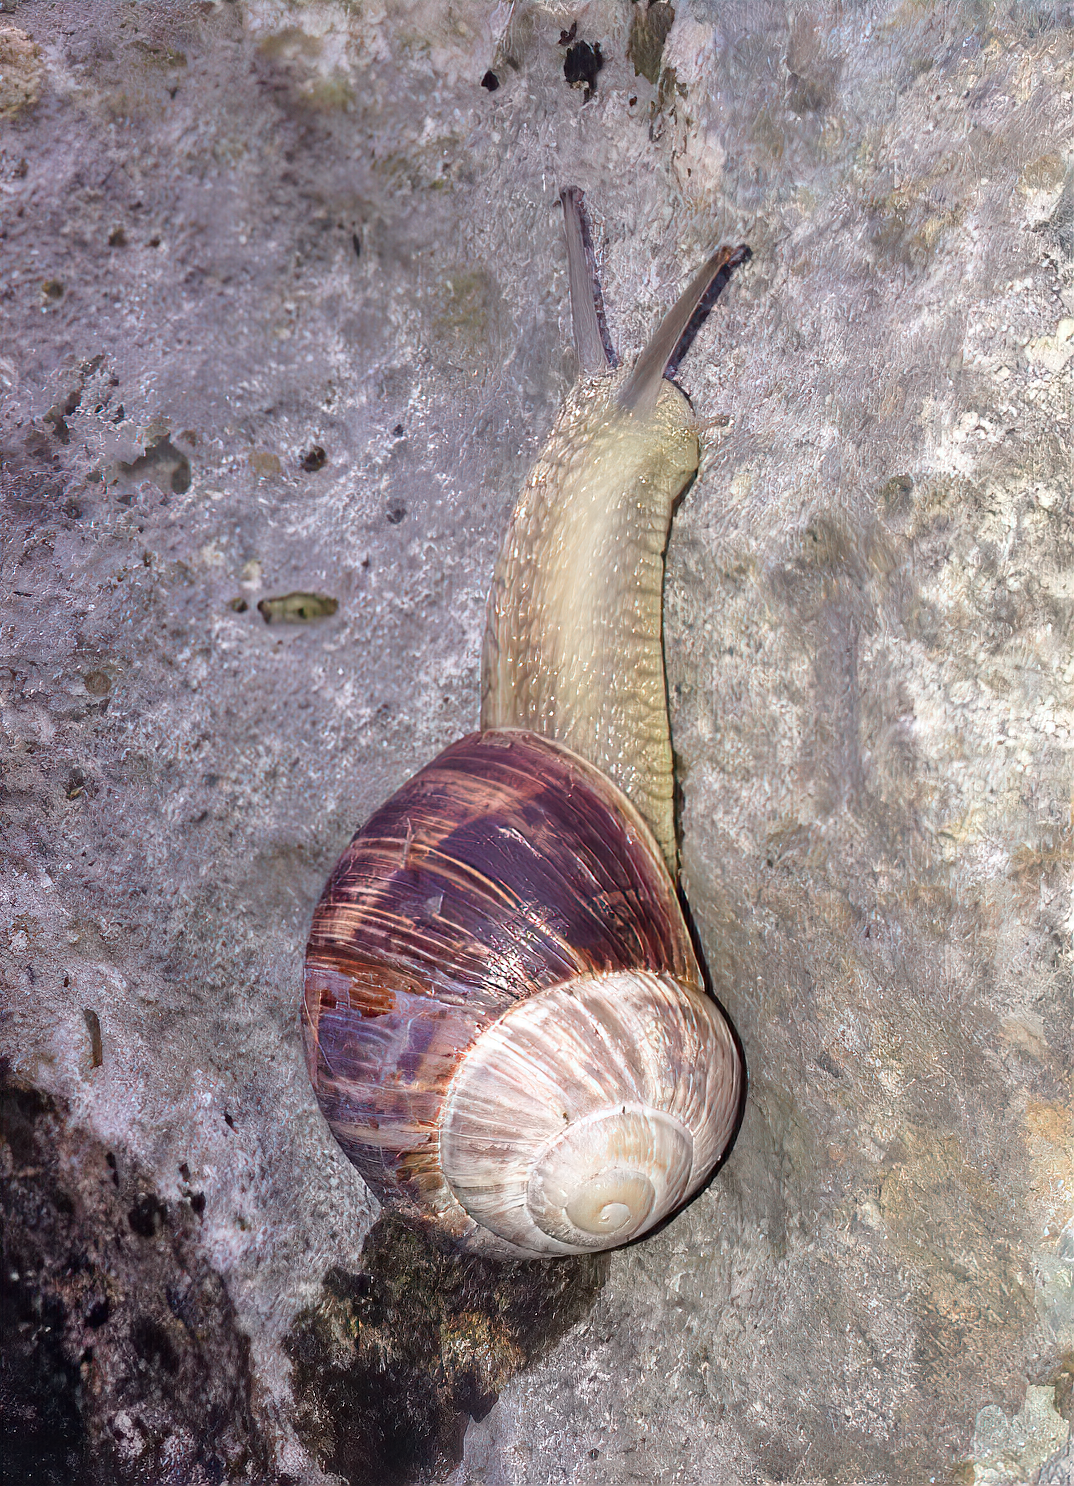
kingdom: Animalia
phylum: Mollusca
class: Gastropoda
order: Stylommatophora
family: Helicidae
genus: Helix
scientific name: Helix schlaeflii
